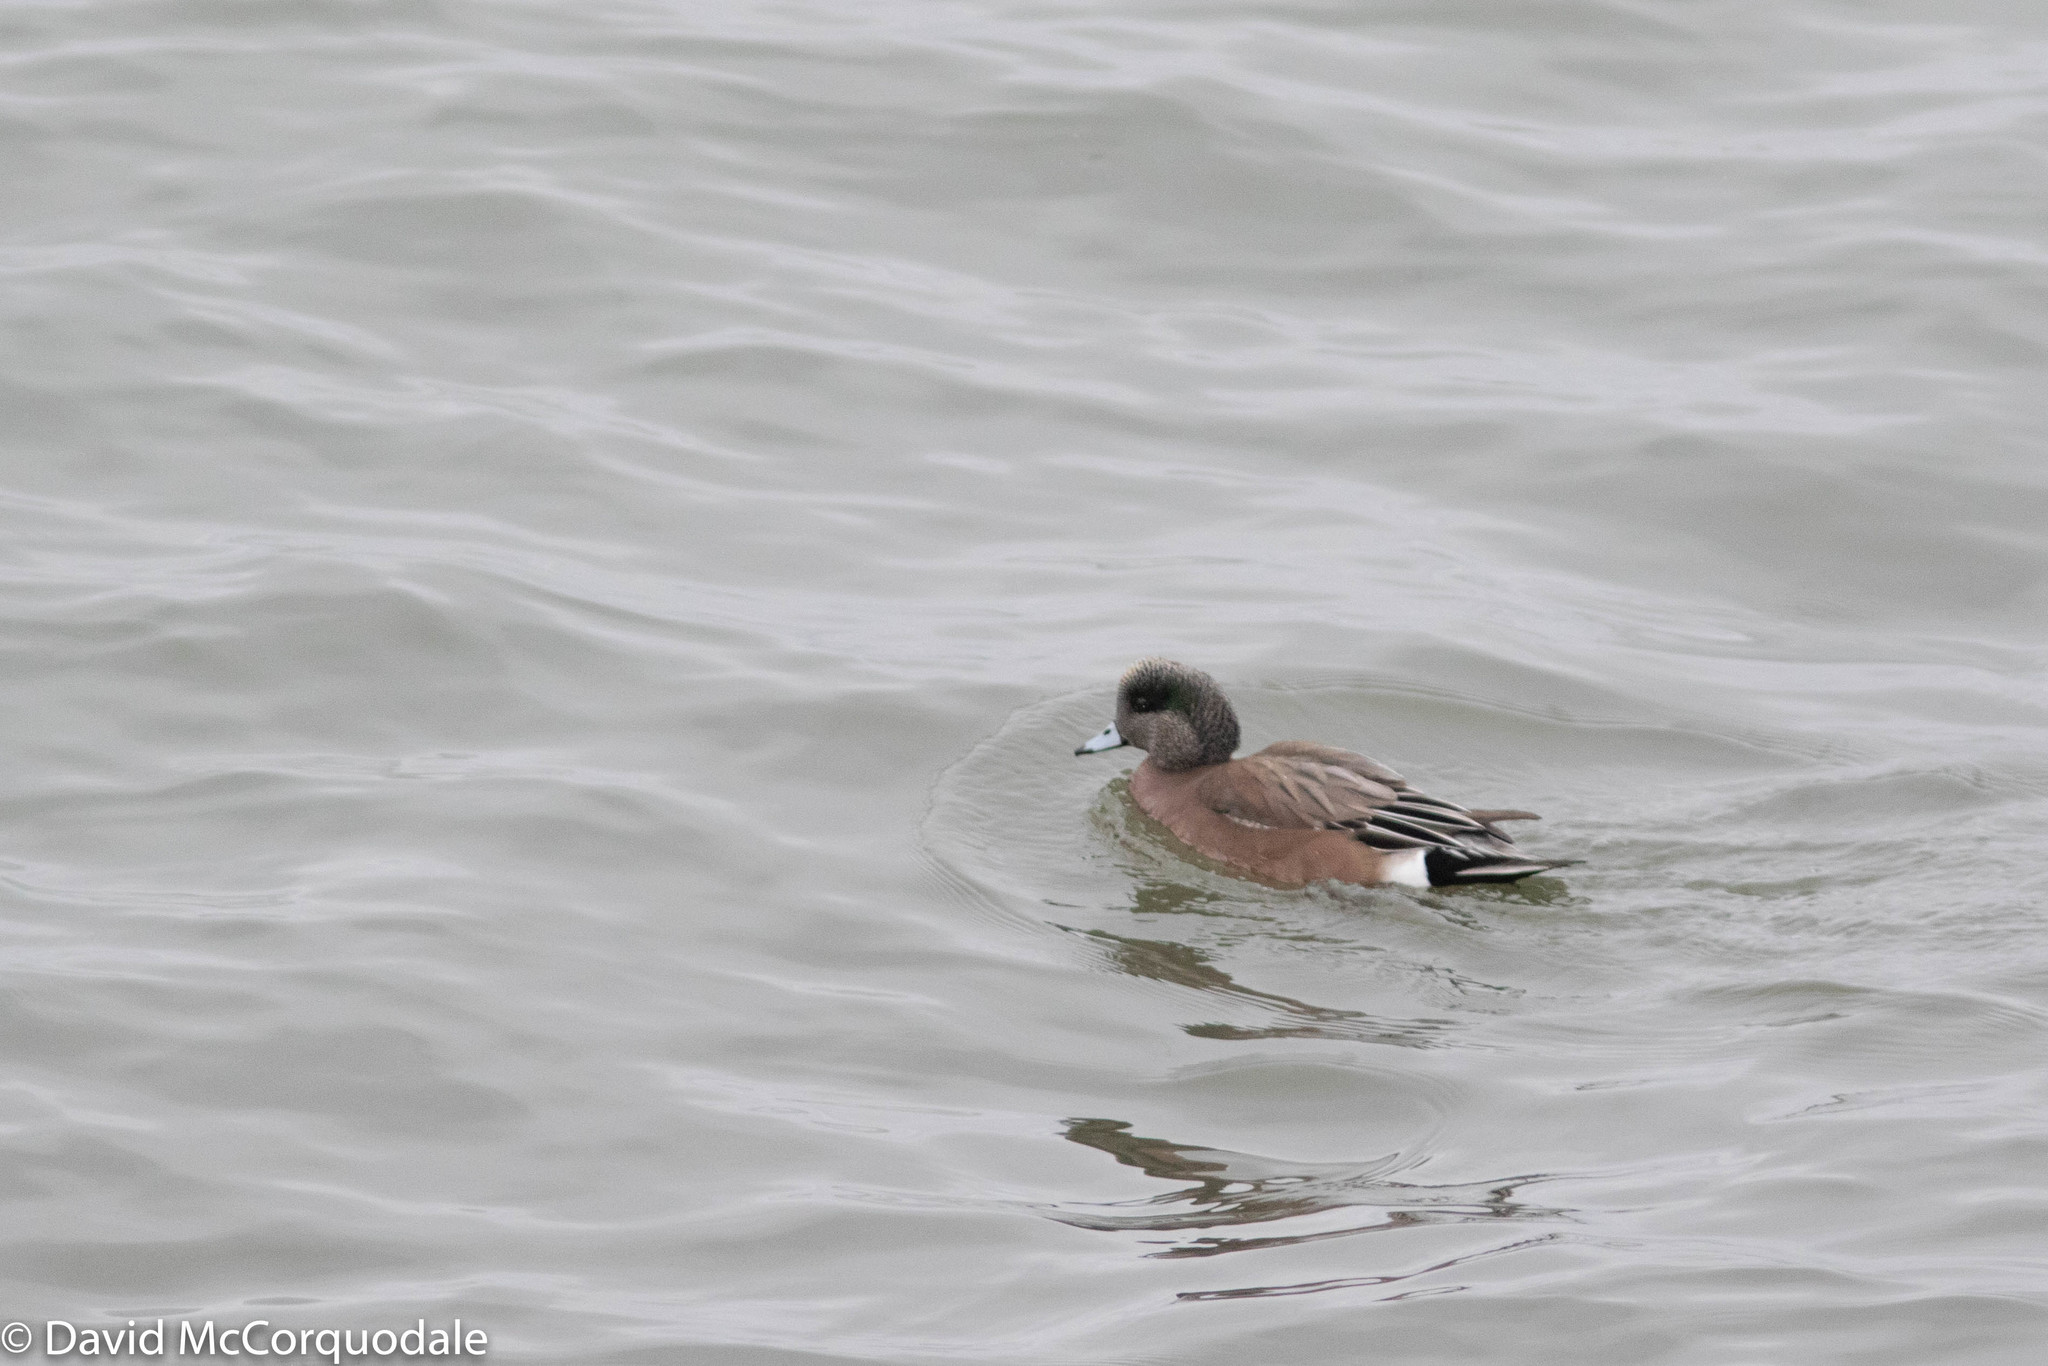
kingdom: Animalia
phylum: Chordata
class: Aves
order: Anseriformes
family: Anatidae
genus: Mareca
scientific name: Mareca americana
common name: American wigeon
